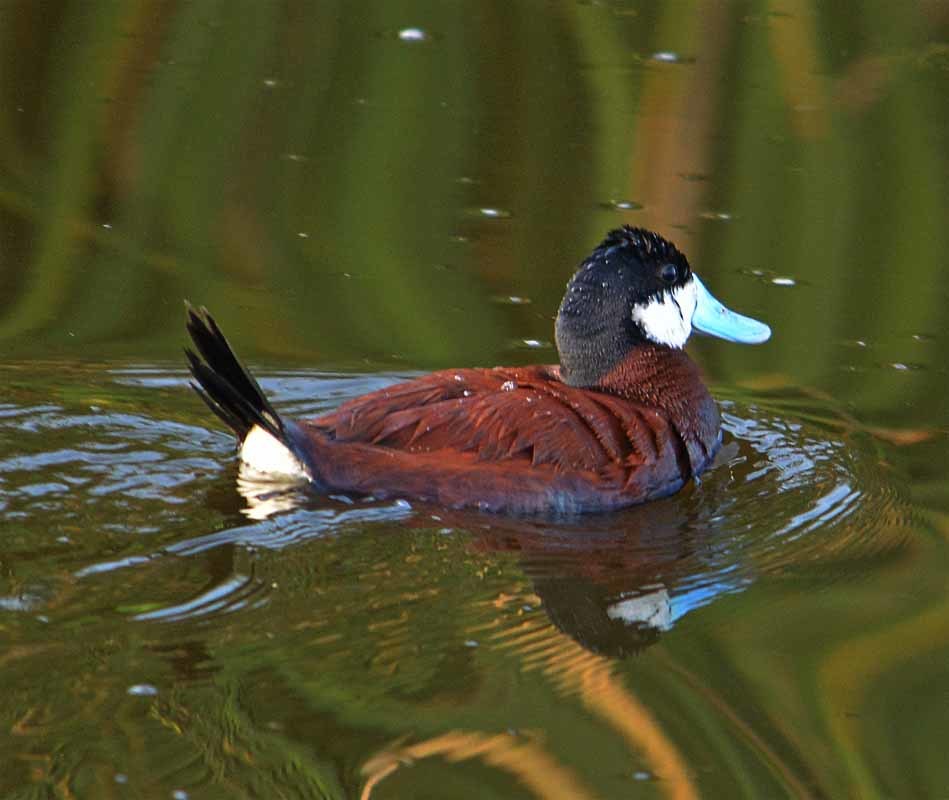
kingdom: Animalia
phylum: Chordata
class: Aves
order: Anseriformes
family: Anatidae
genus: Oxyura
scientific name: Oxyura jamaicensis
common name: Ruddy duck
